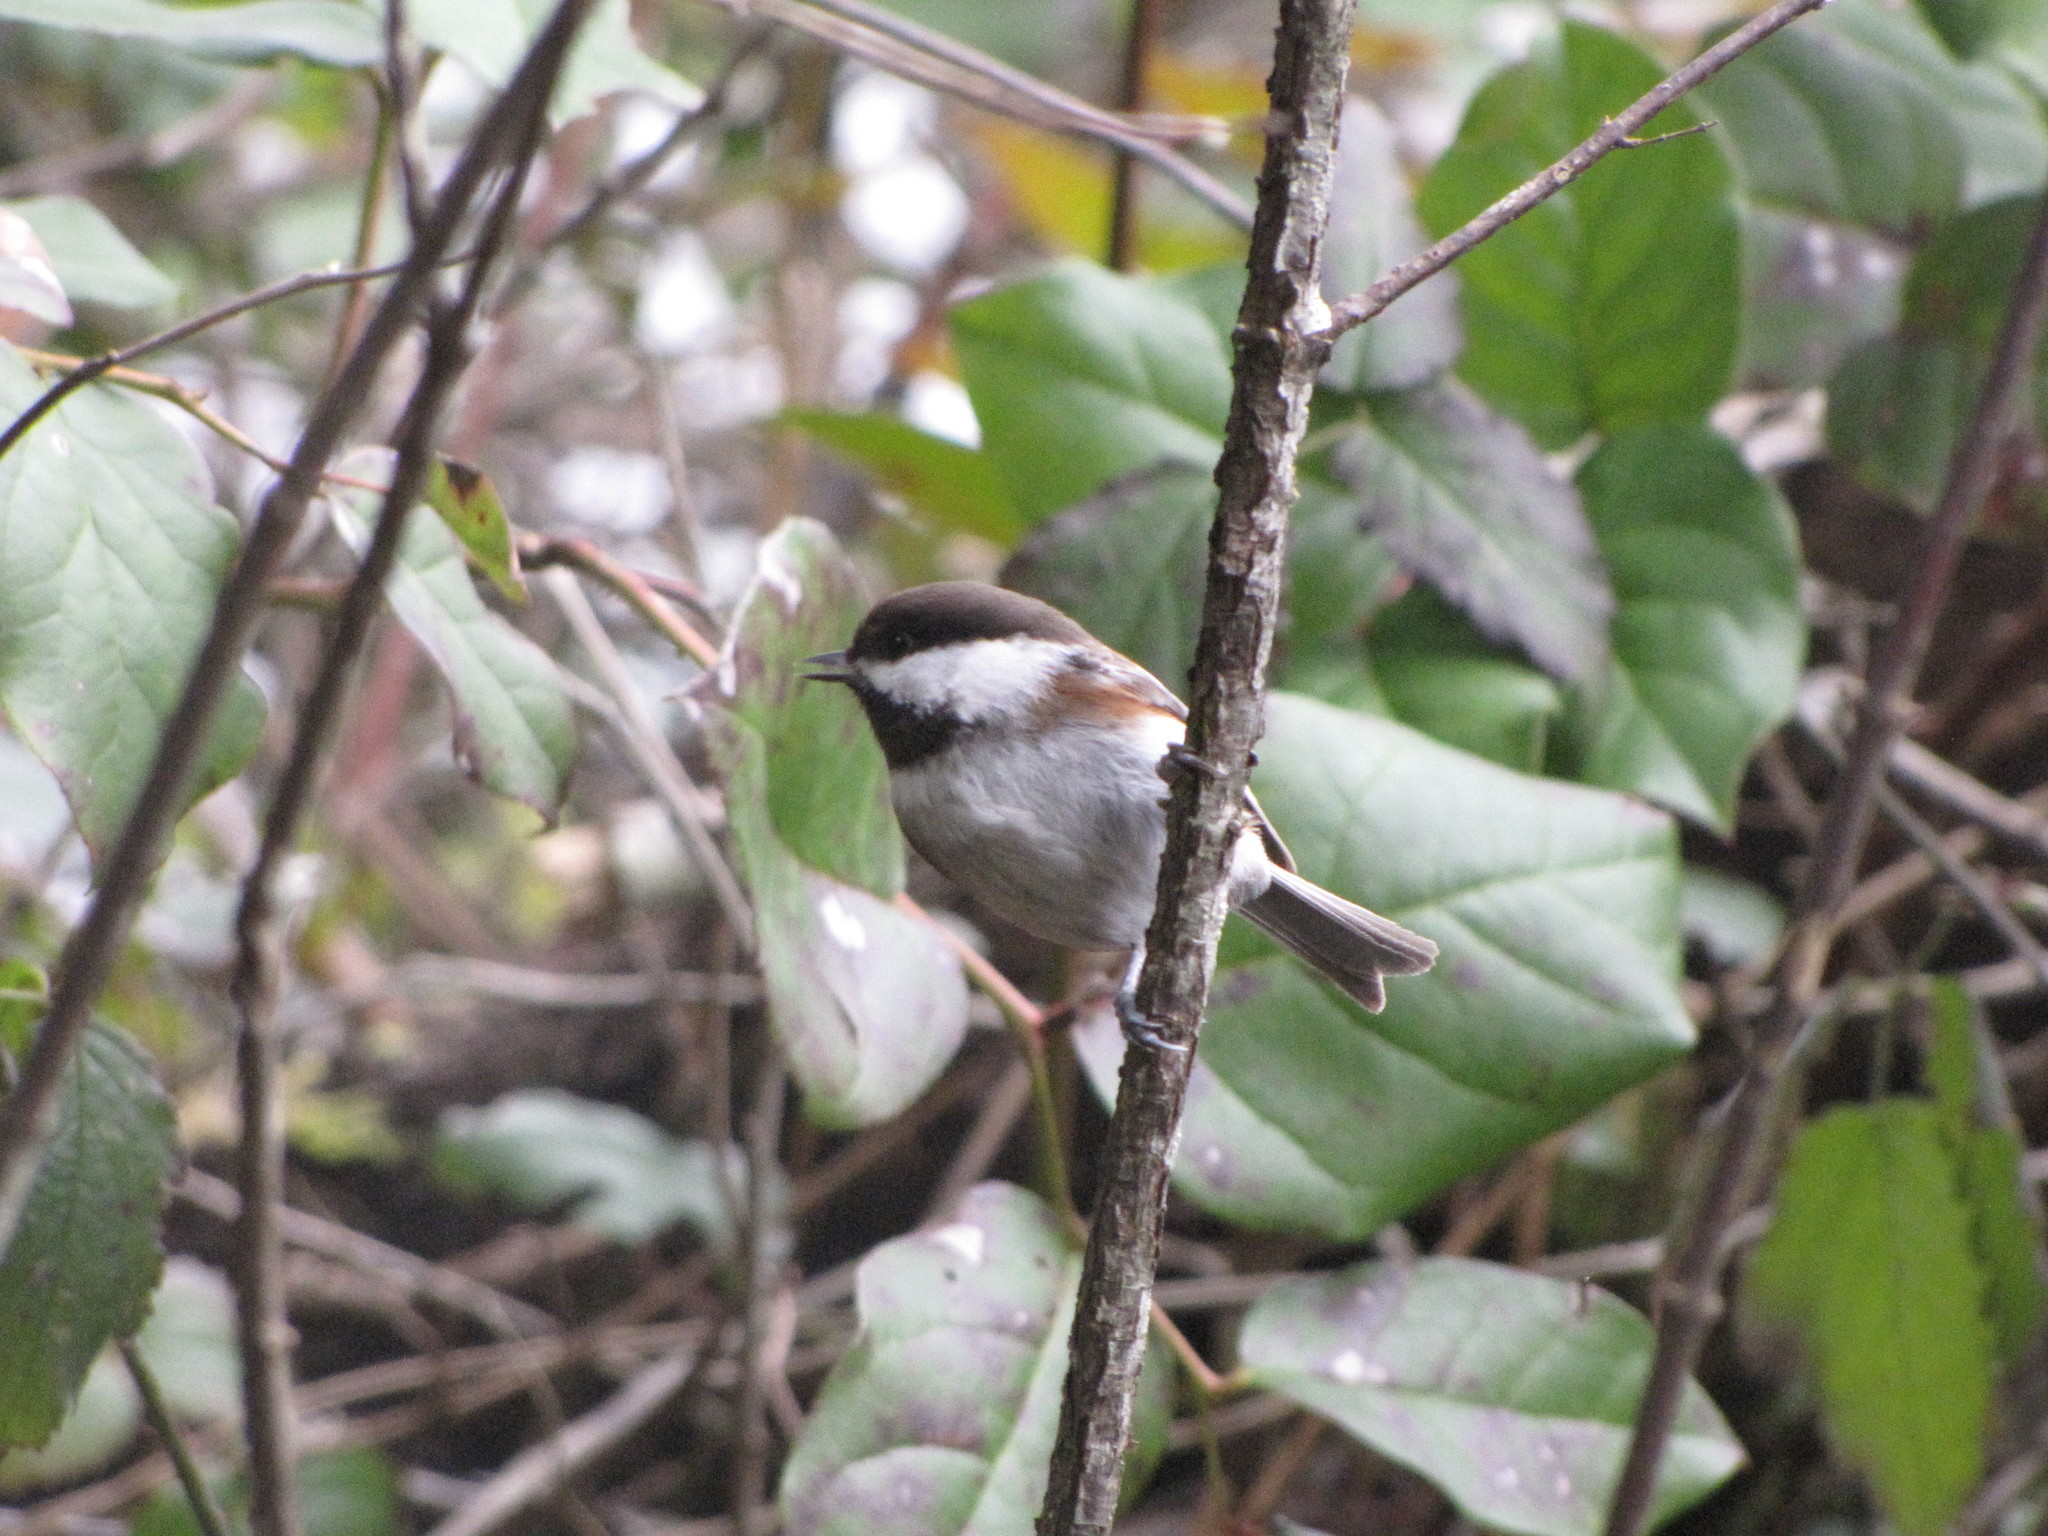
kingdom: Animalia
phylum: Chordata
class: Aves
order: Passeriformes
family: Paridae
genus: Poecile
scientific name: Poecile rufescens
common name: Chestnut-backed chickadee
